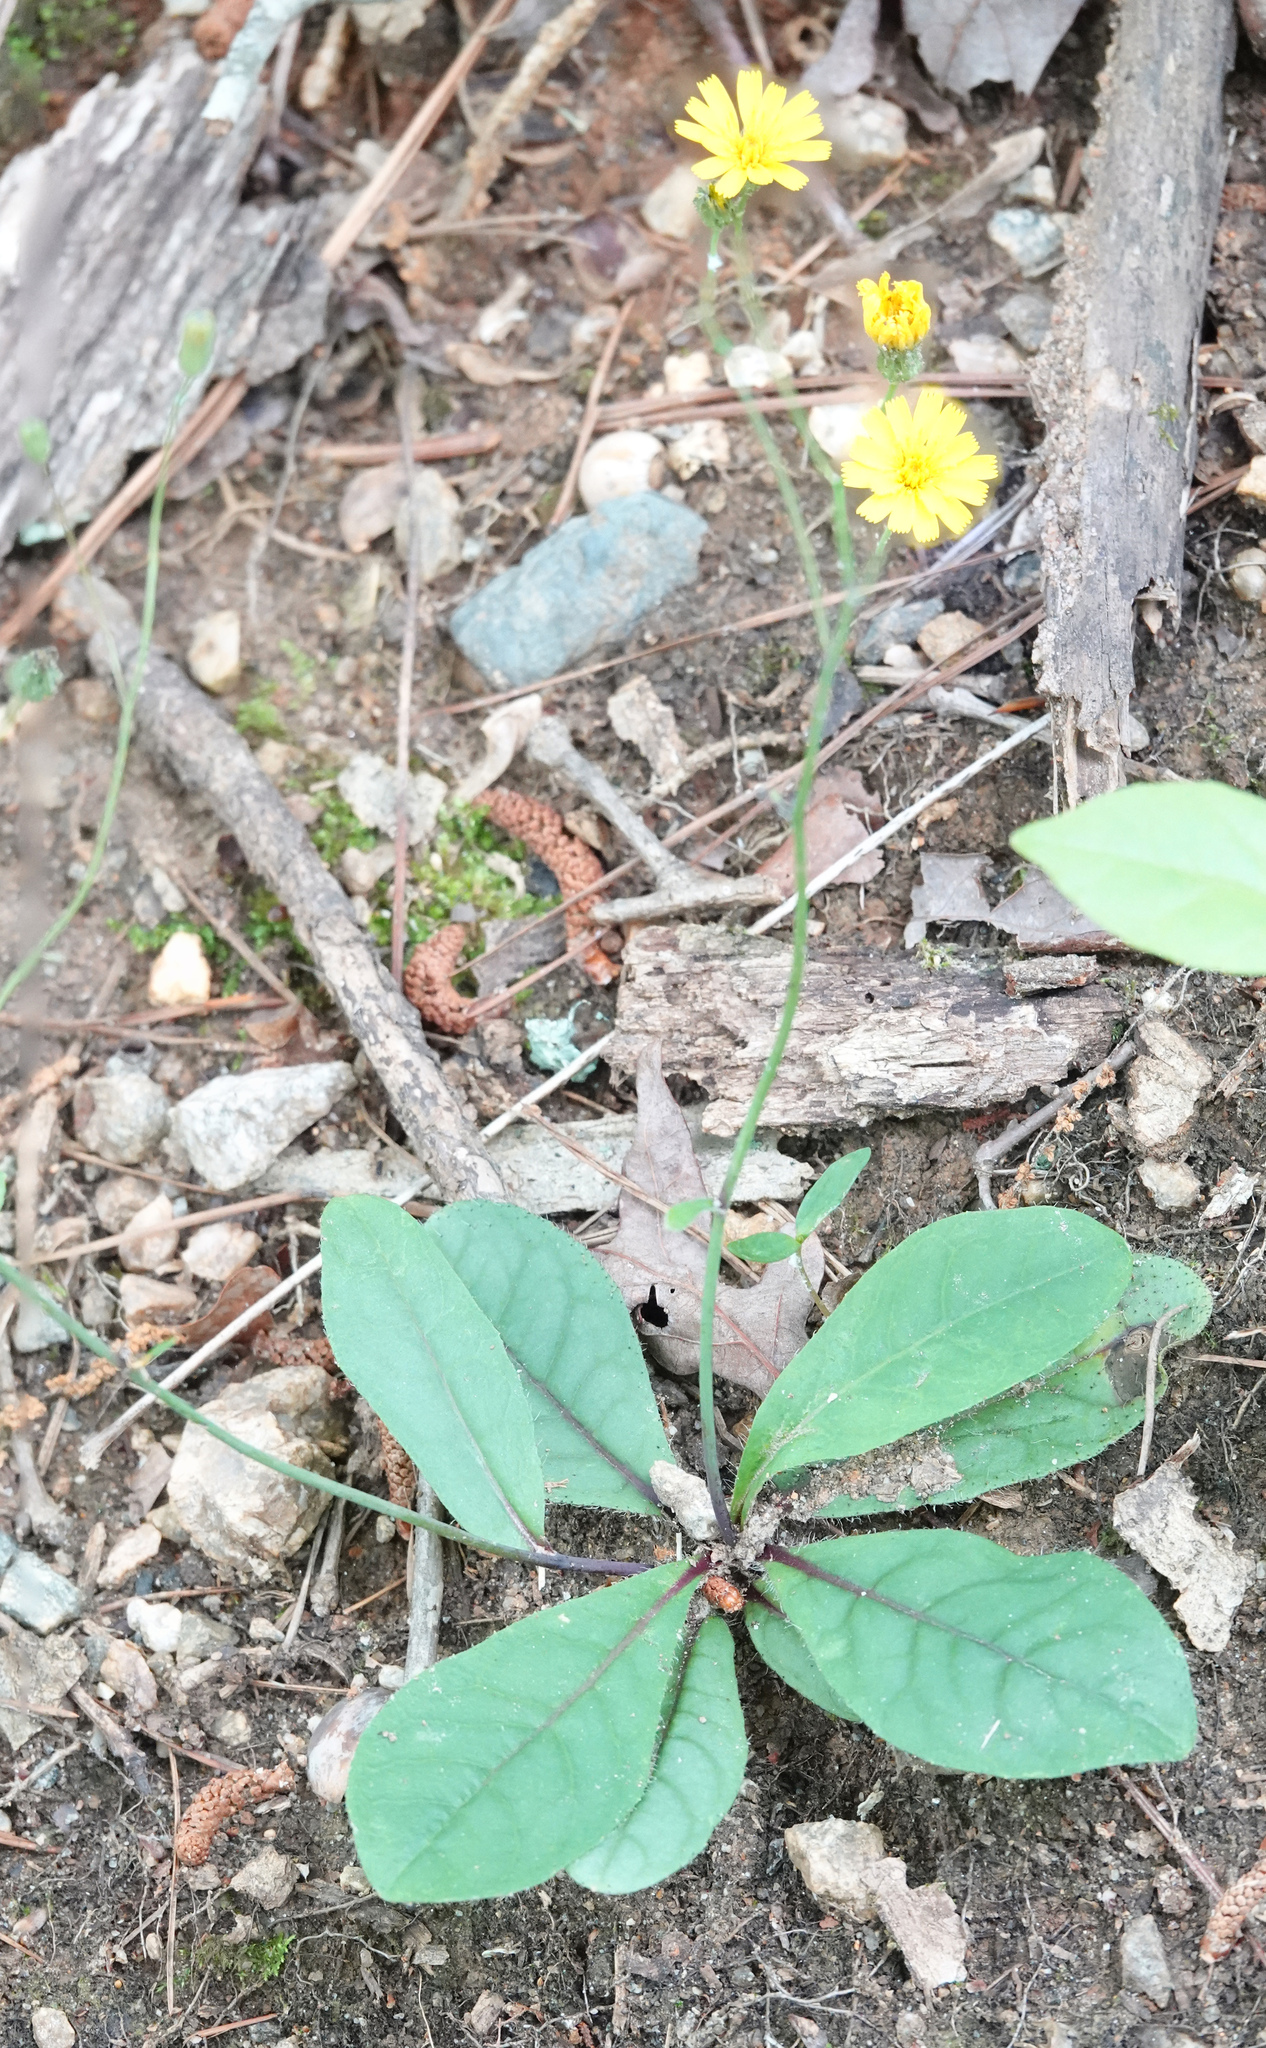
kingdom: Plantae
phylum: Tracheophyta
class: Magnoliopsida
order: Asterales
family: Asteraceae
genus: Hieracium
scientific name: Hieracium venosum
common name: Rattlesnake hawkweed
